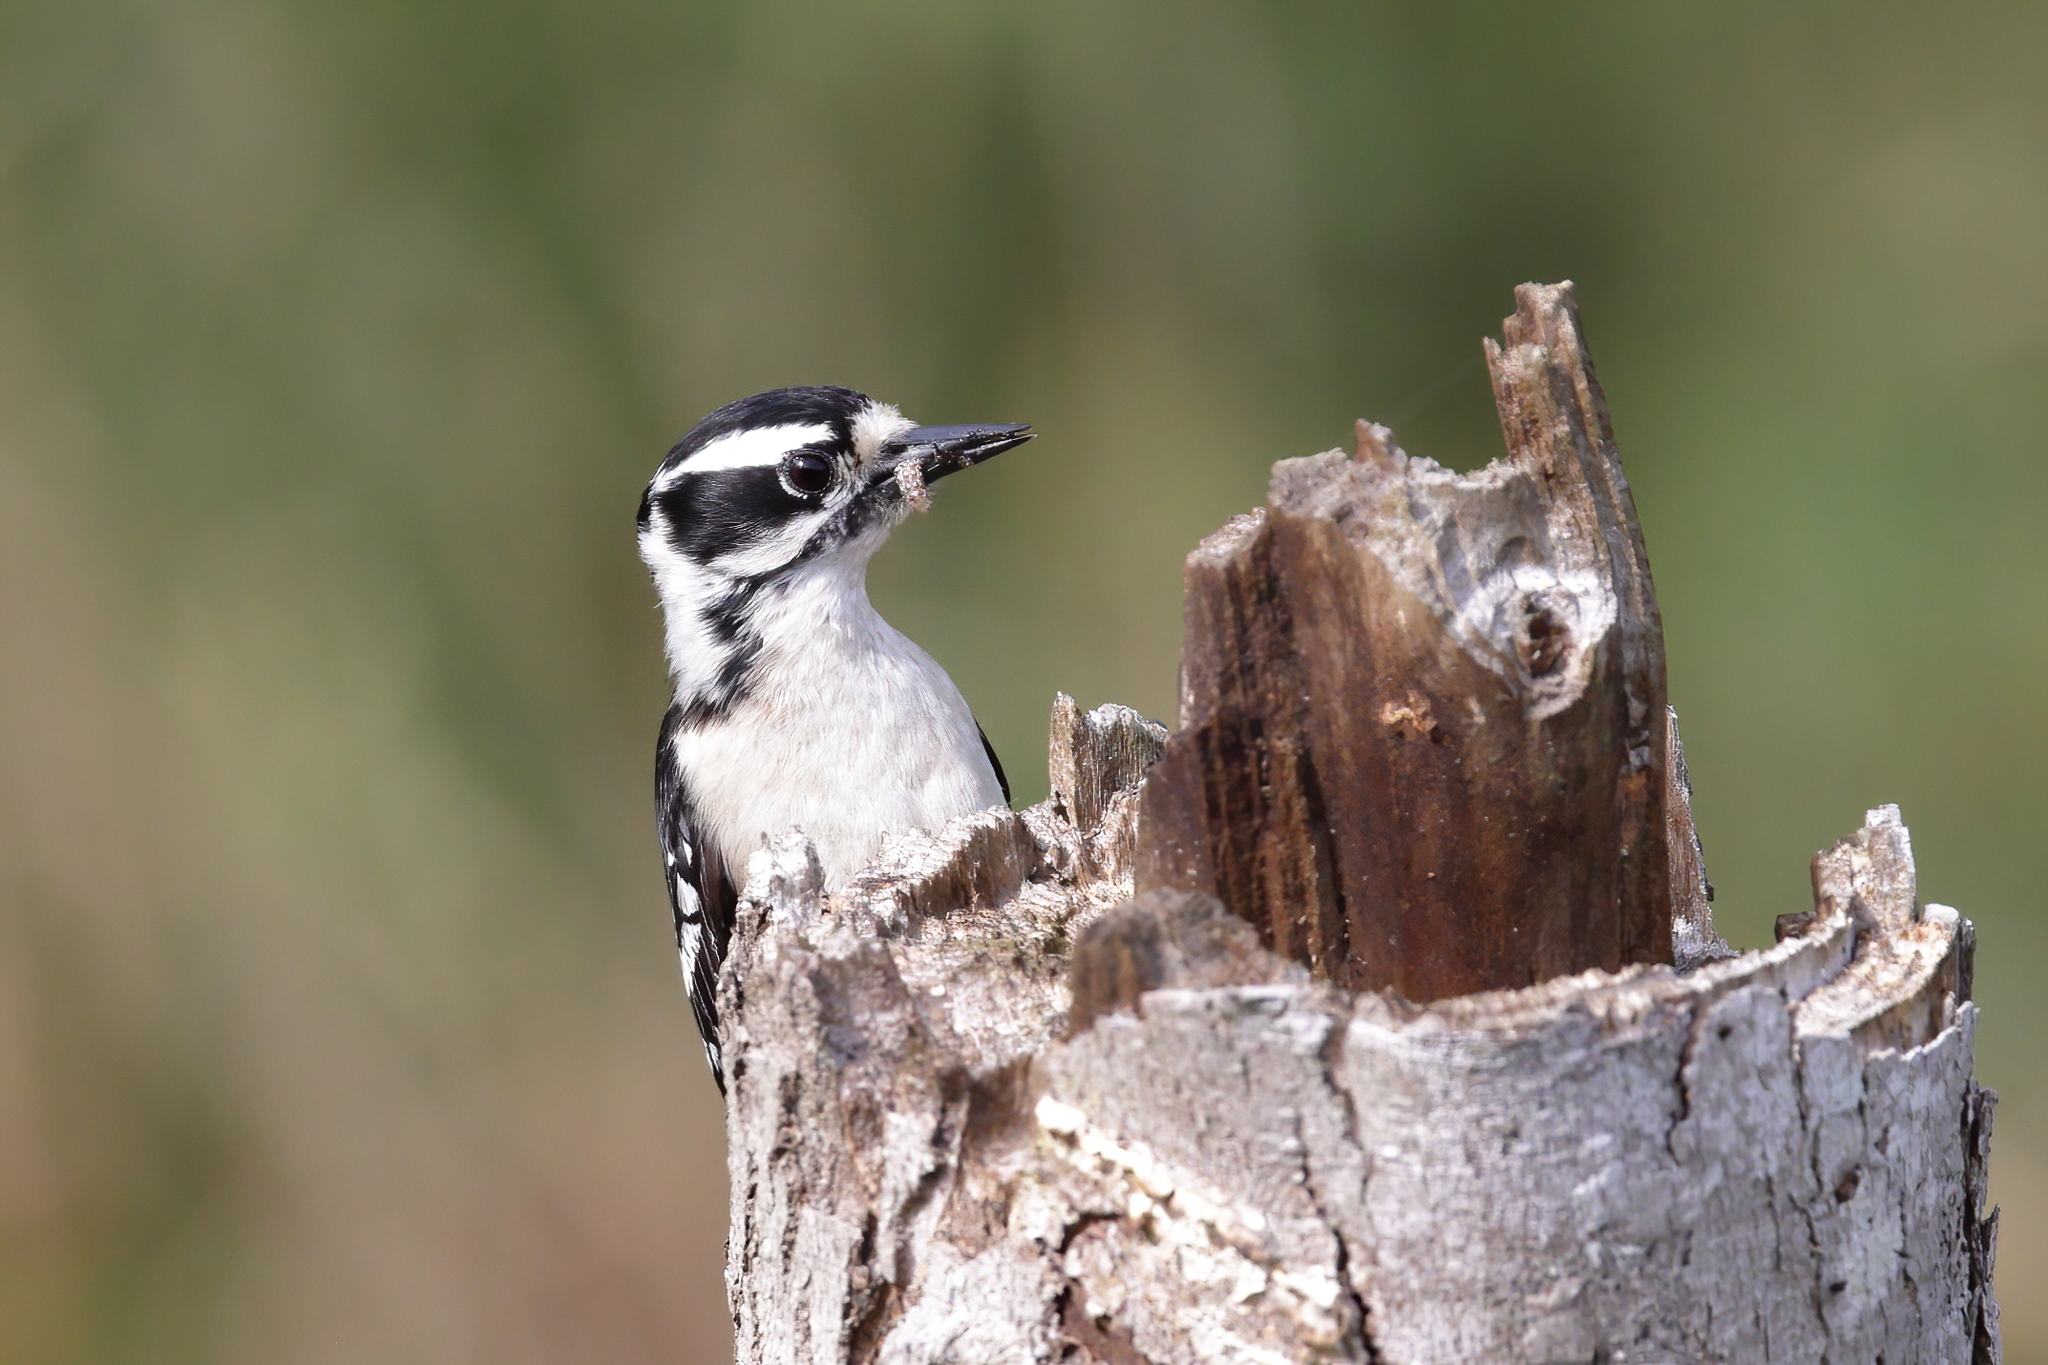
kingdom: Animalia
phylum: Chordata
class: Aves
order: Piciformes
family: Picidae
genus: Dryobates
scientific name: Dryobates pubescens
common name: Downy woodpecker
